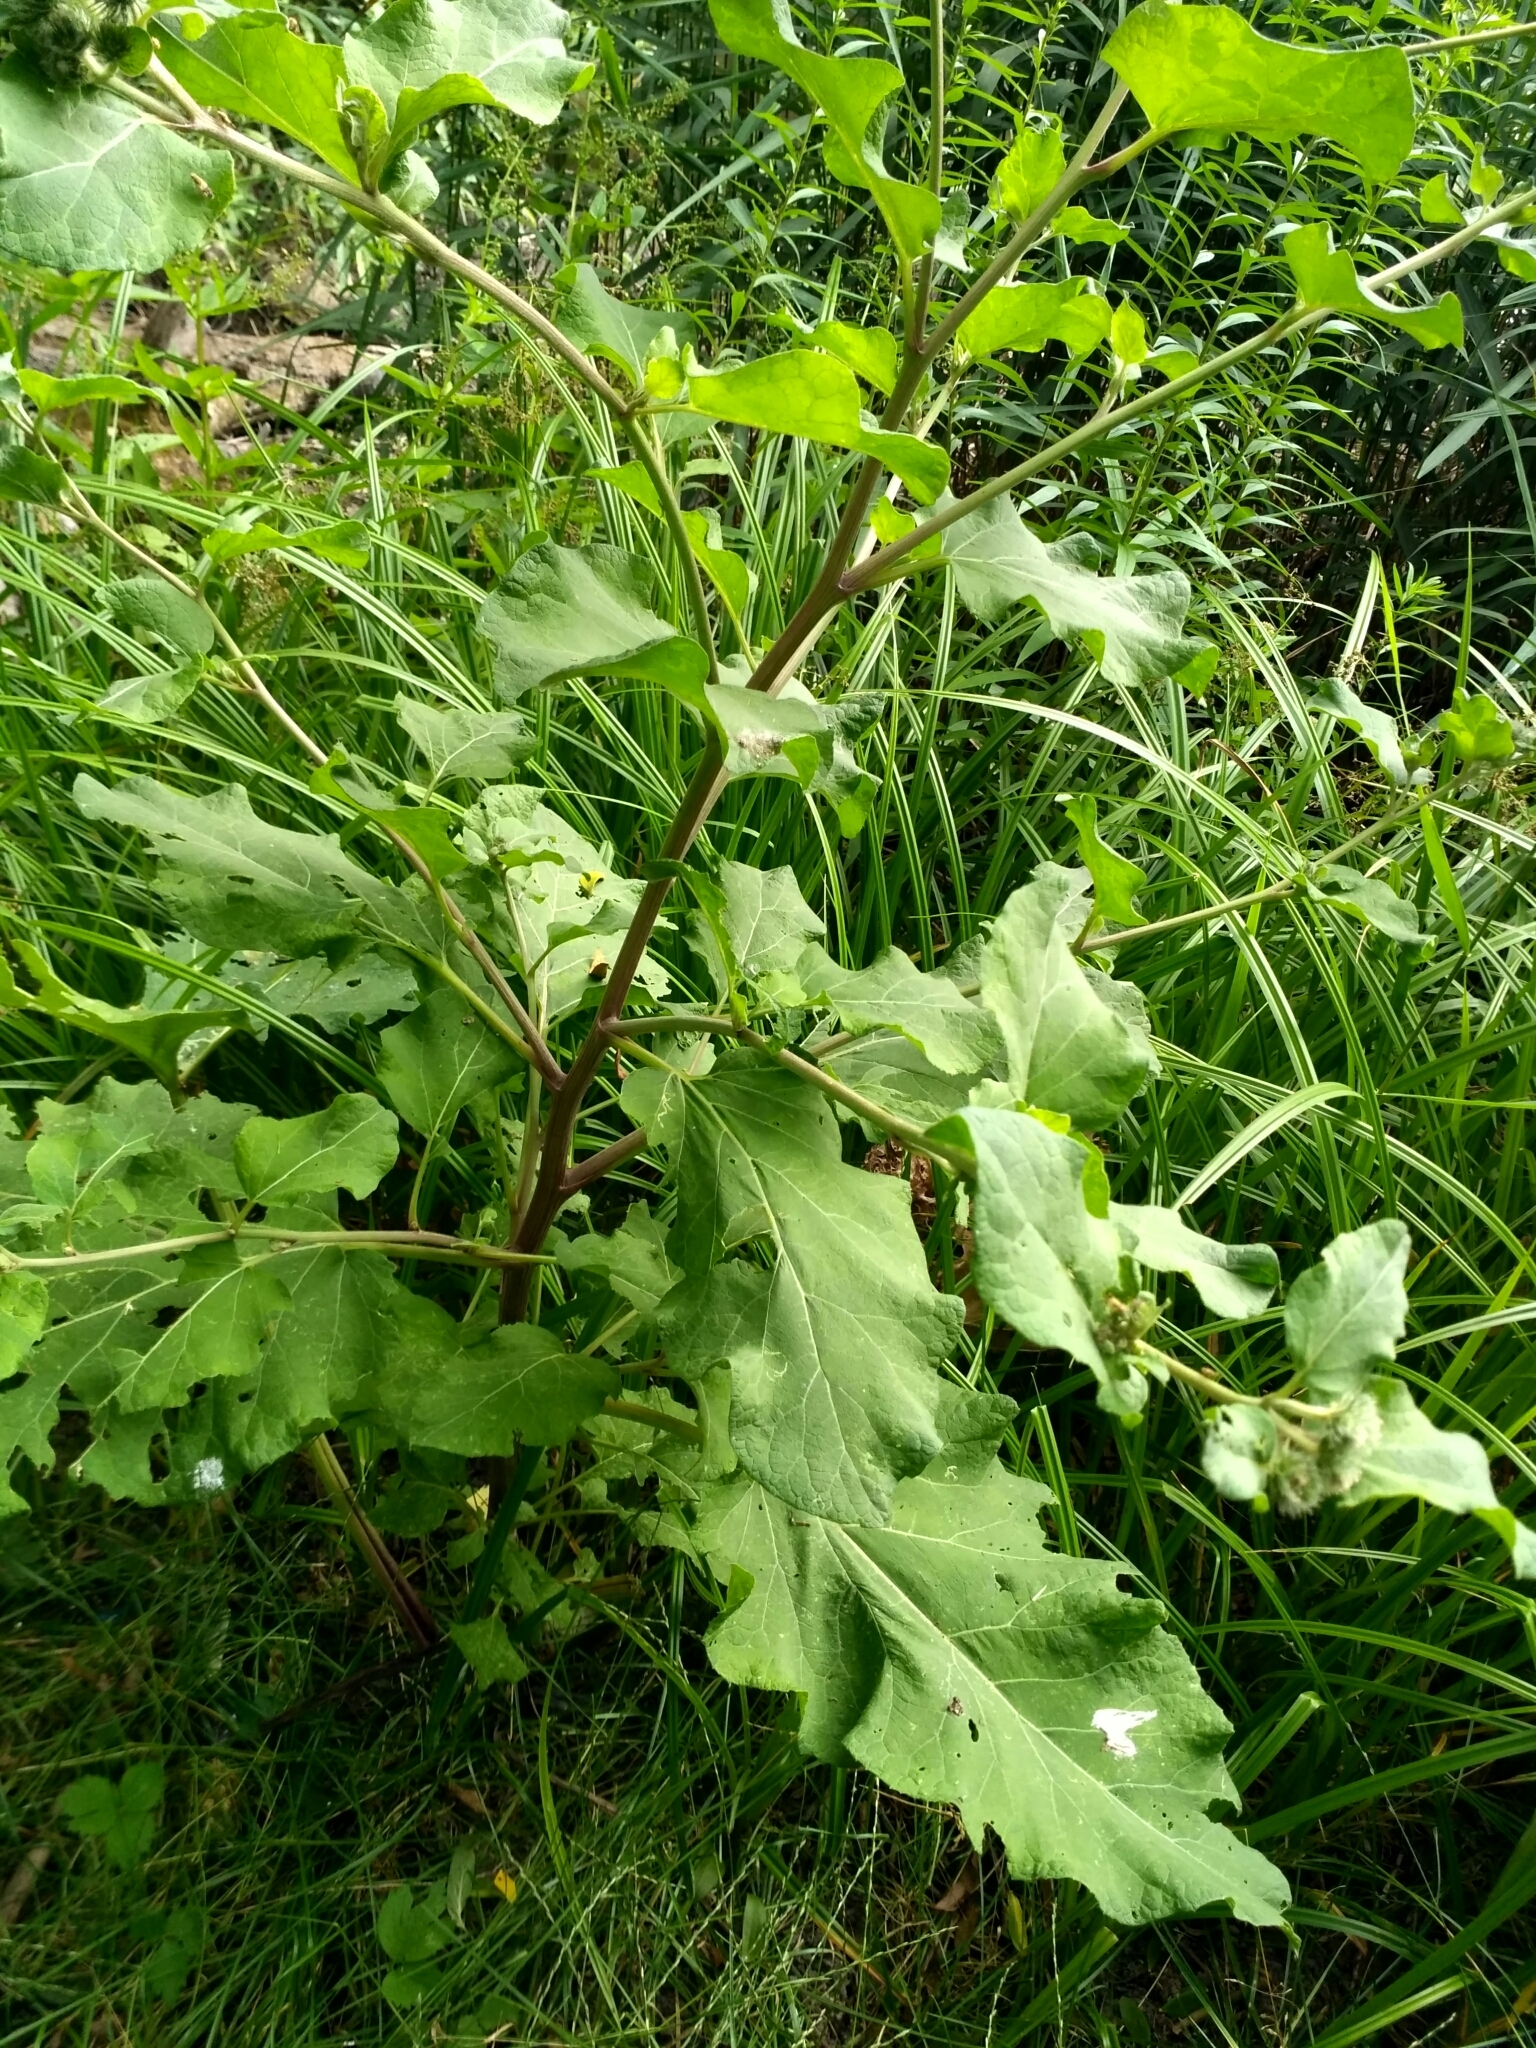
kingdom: Plantae
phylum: Tracheophyta
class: Magnoliopsida
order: Asterales
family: Asteraceae
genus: Arctium
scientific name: Arctium tomentosum
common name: Woolly burdock
